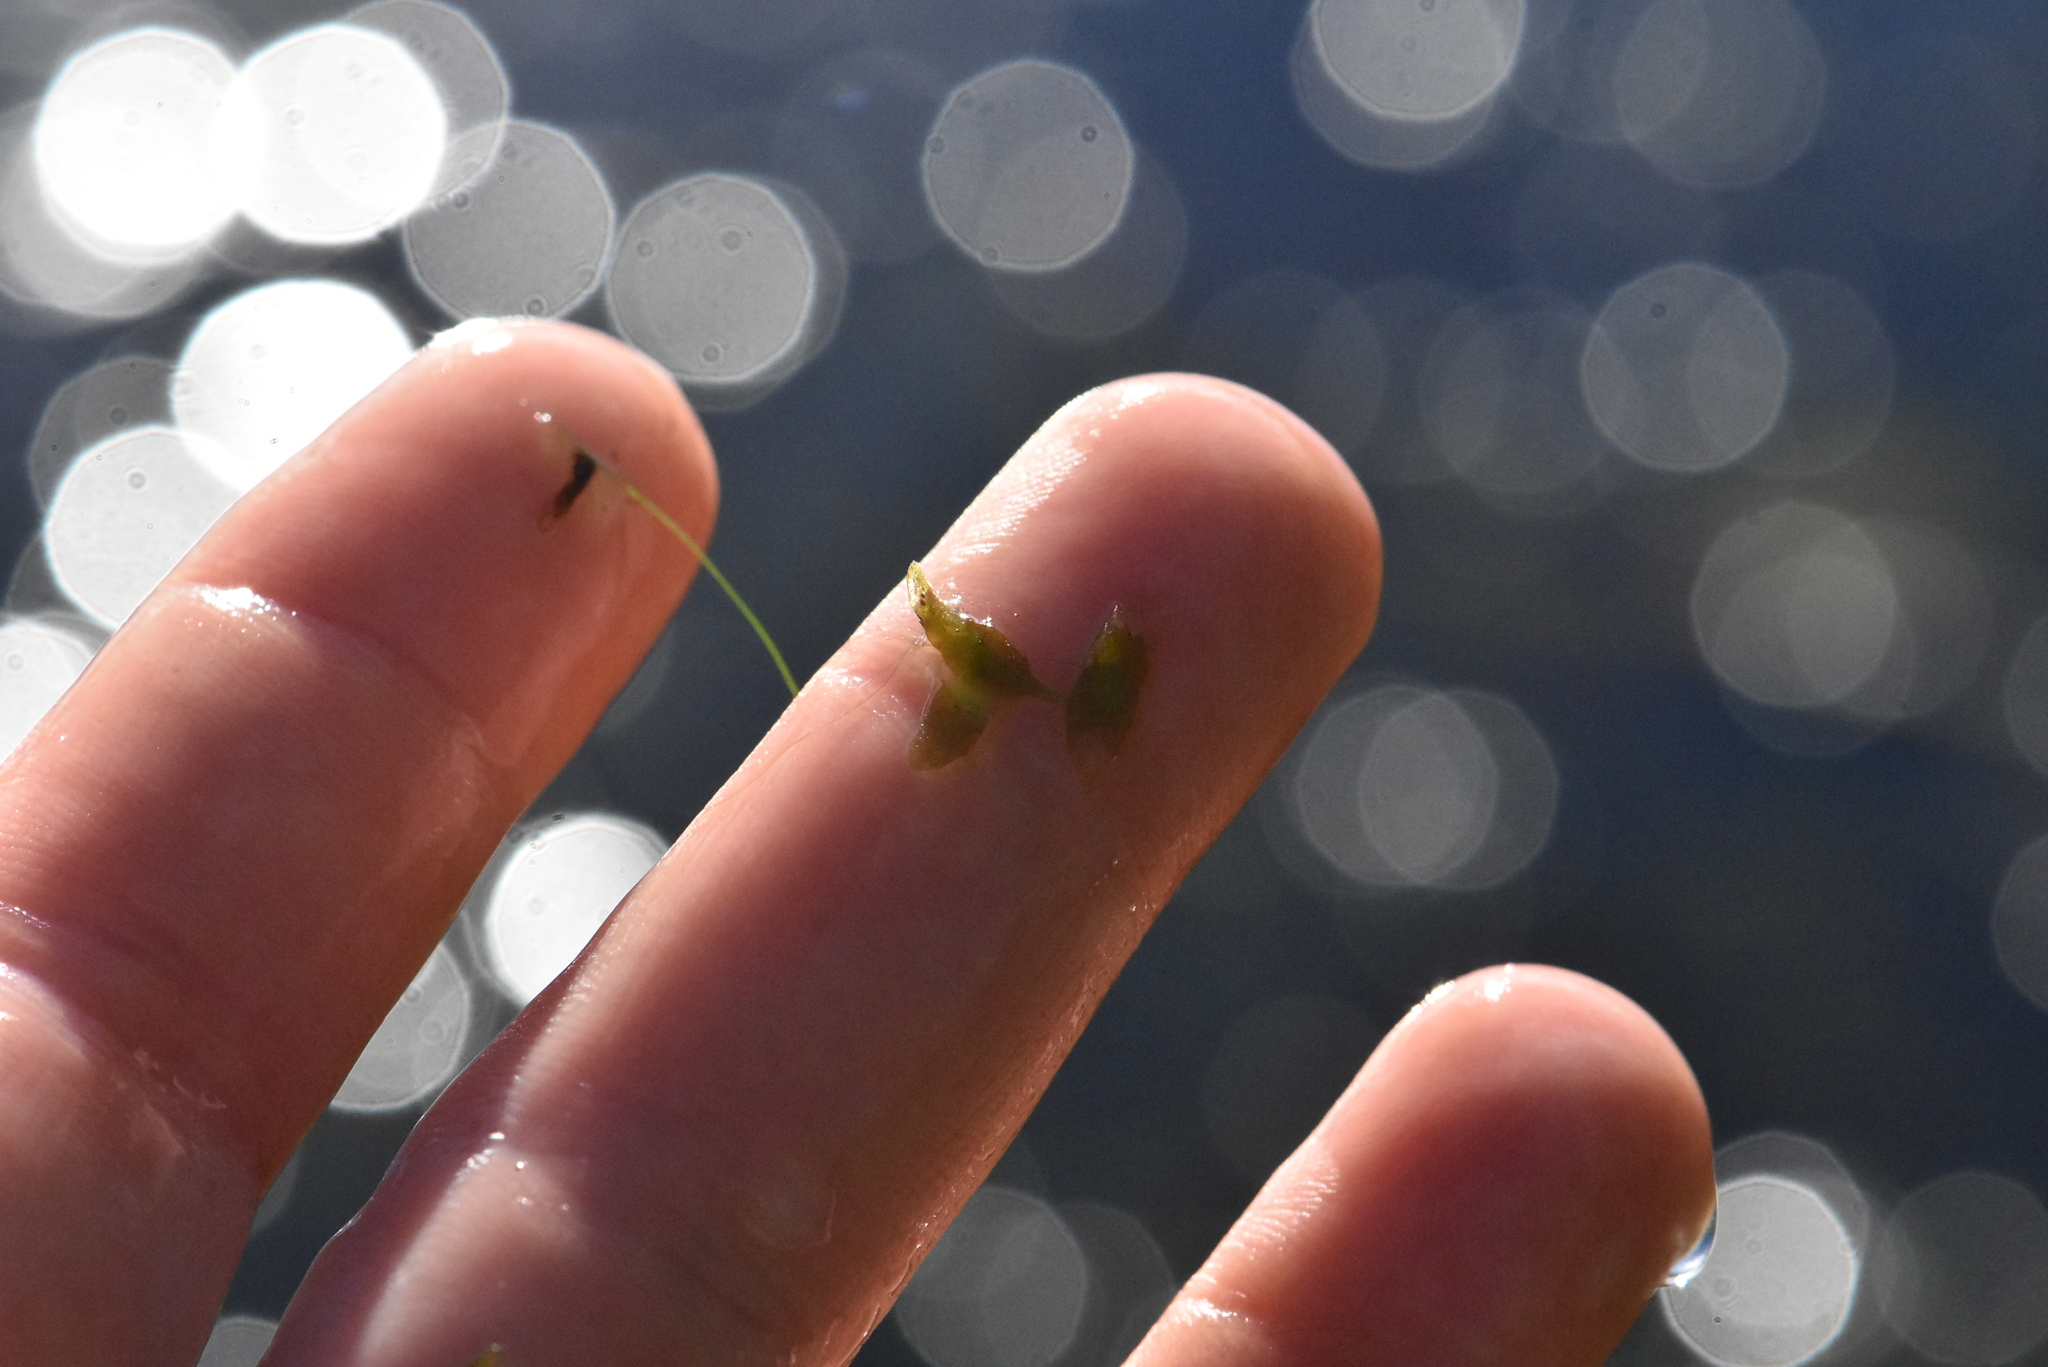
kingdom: Plantae
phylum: Tracheophyta
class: Liliopsida
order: Alismatales
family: Araceae
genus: Lemna
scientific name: Lemna trisulca
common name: Ivy-leaved duckweed
